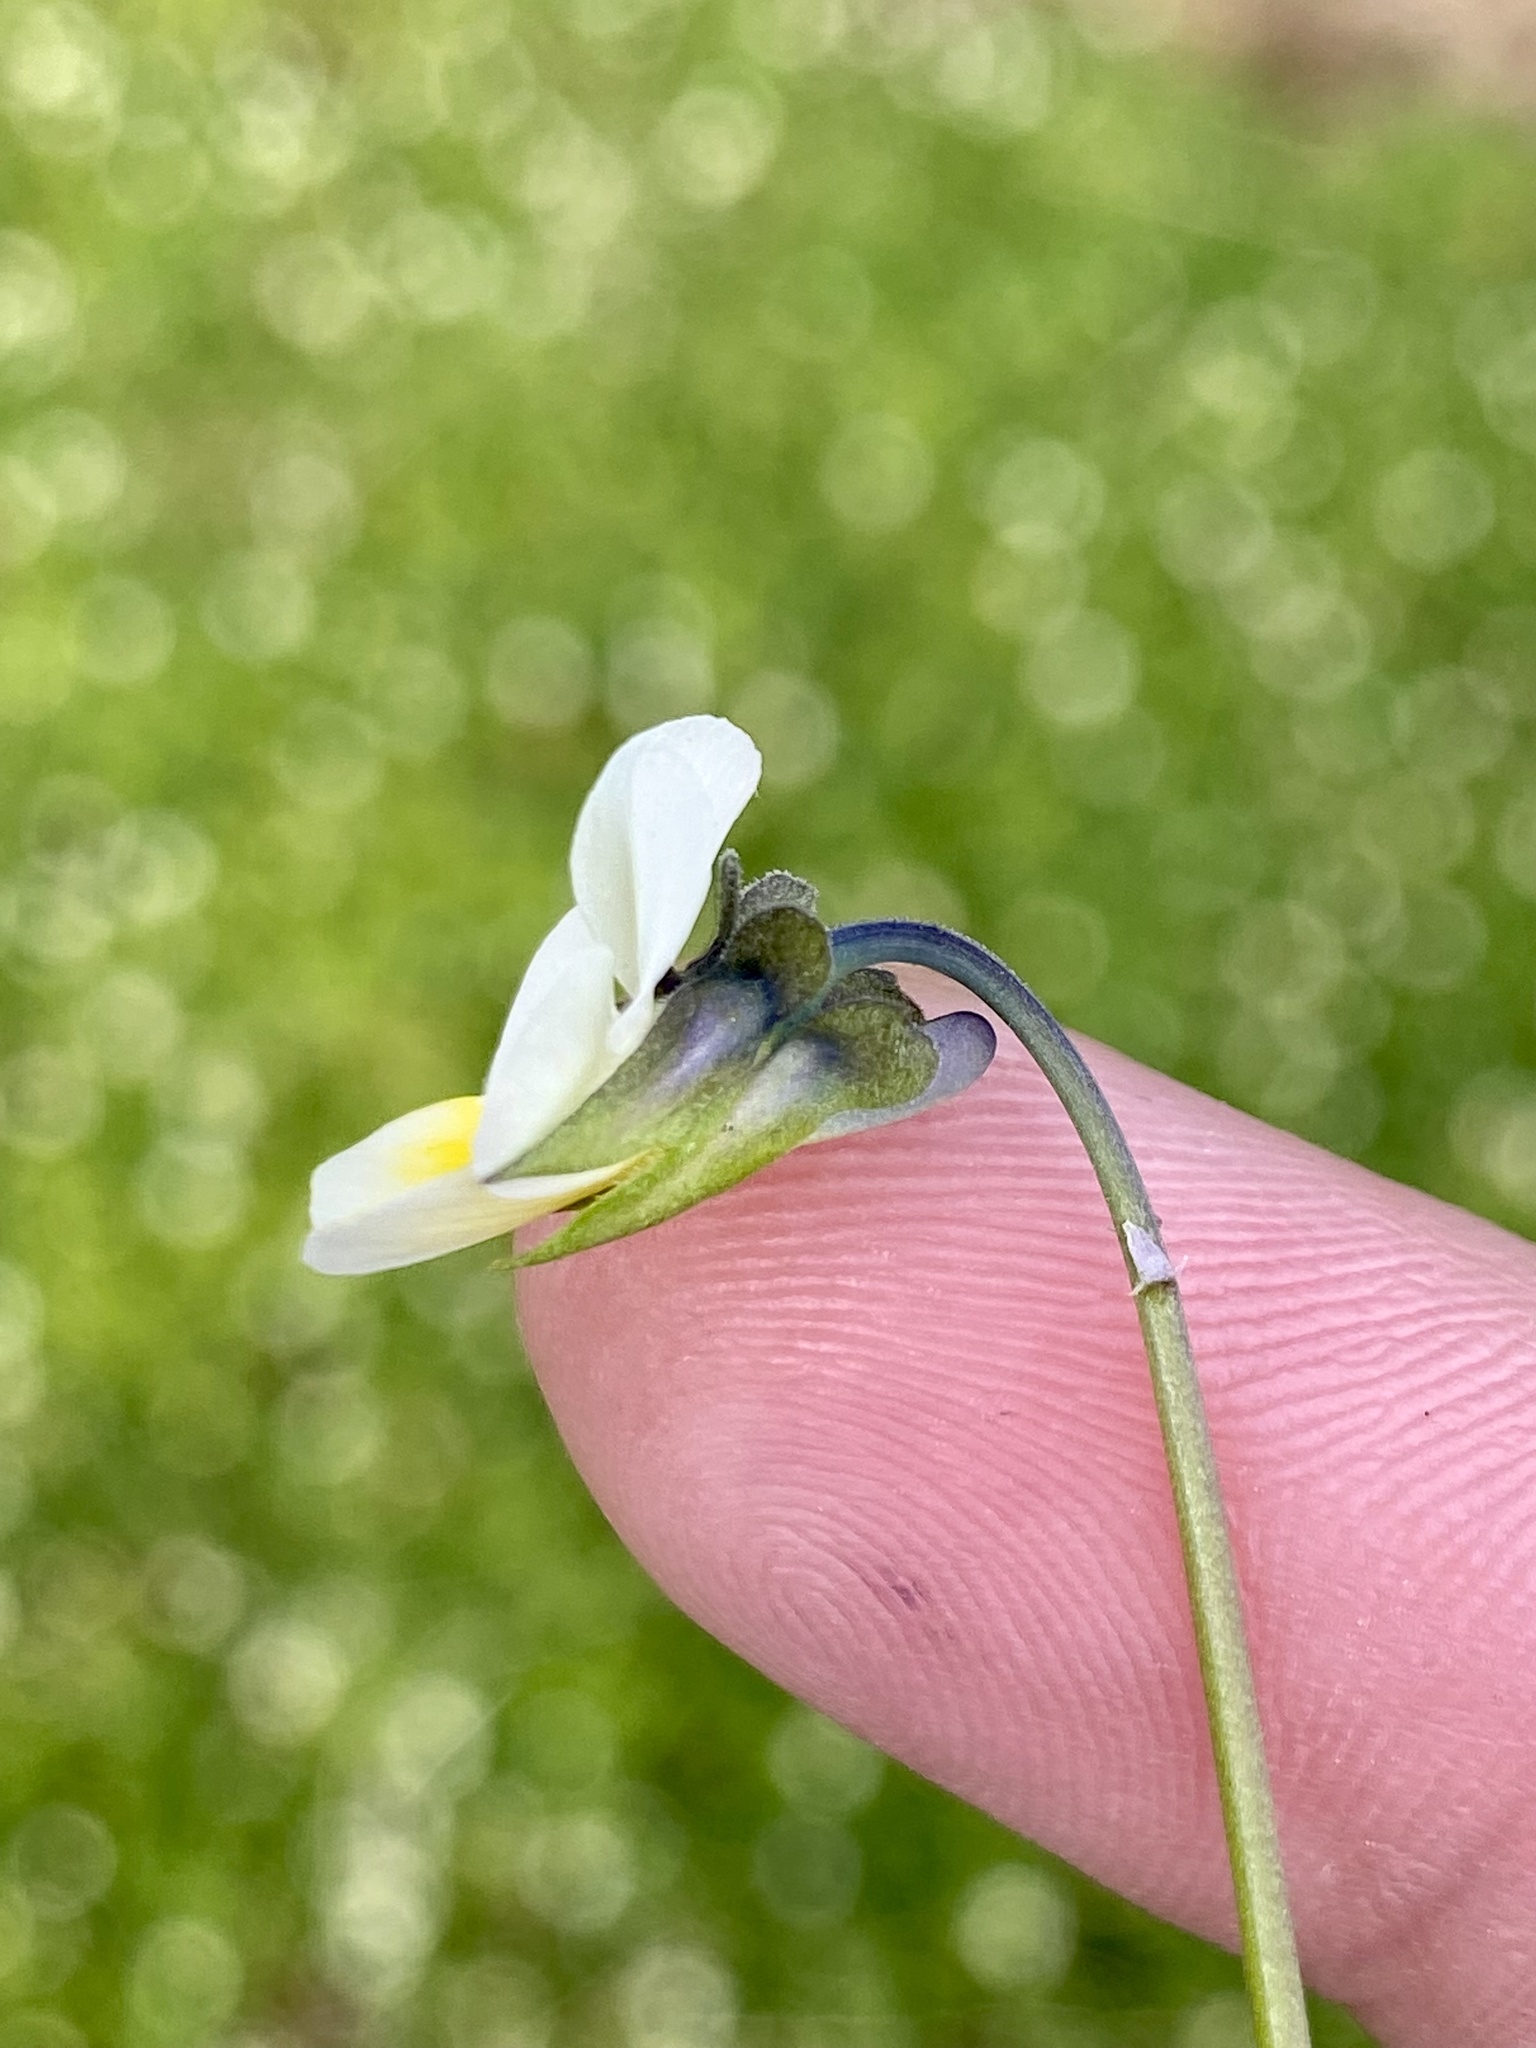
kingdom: Plantae
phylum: Tracheophyta
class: Magnoliopsida
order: Malpighiales
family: Violaceae
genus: Viola
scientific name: Viola arvensis
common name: Field pansy
